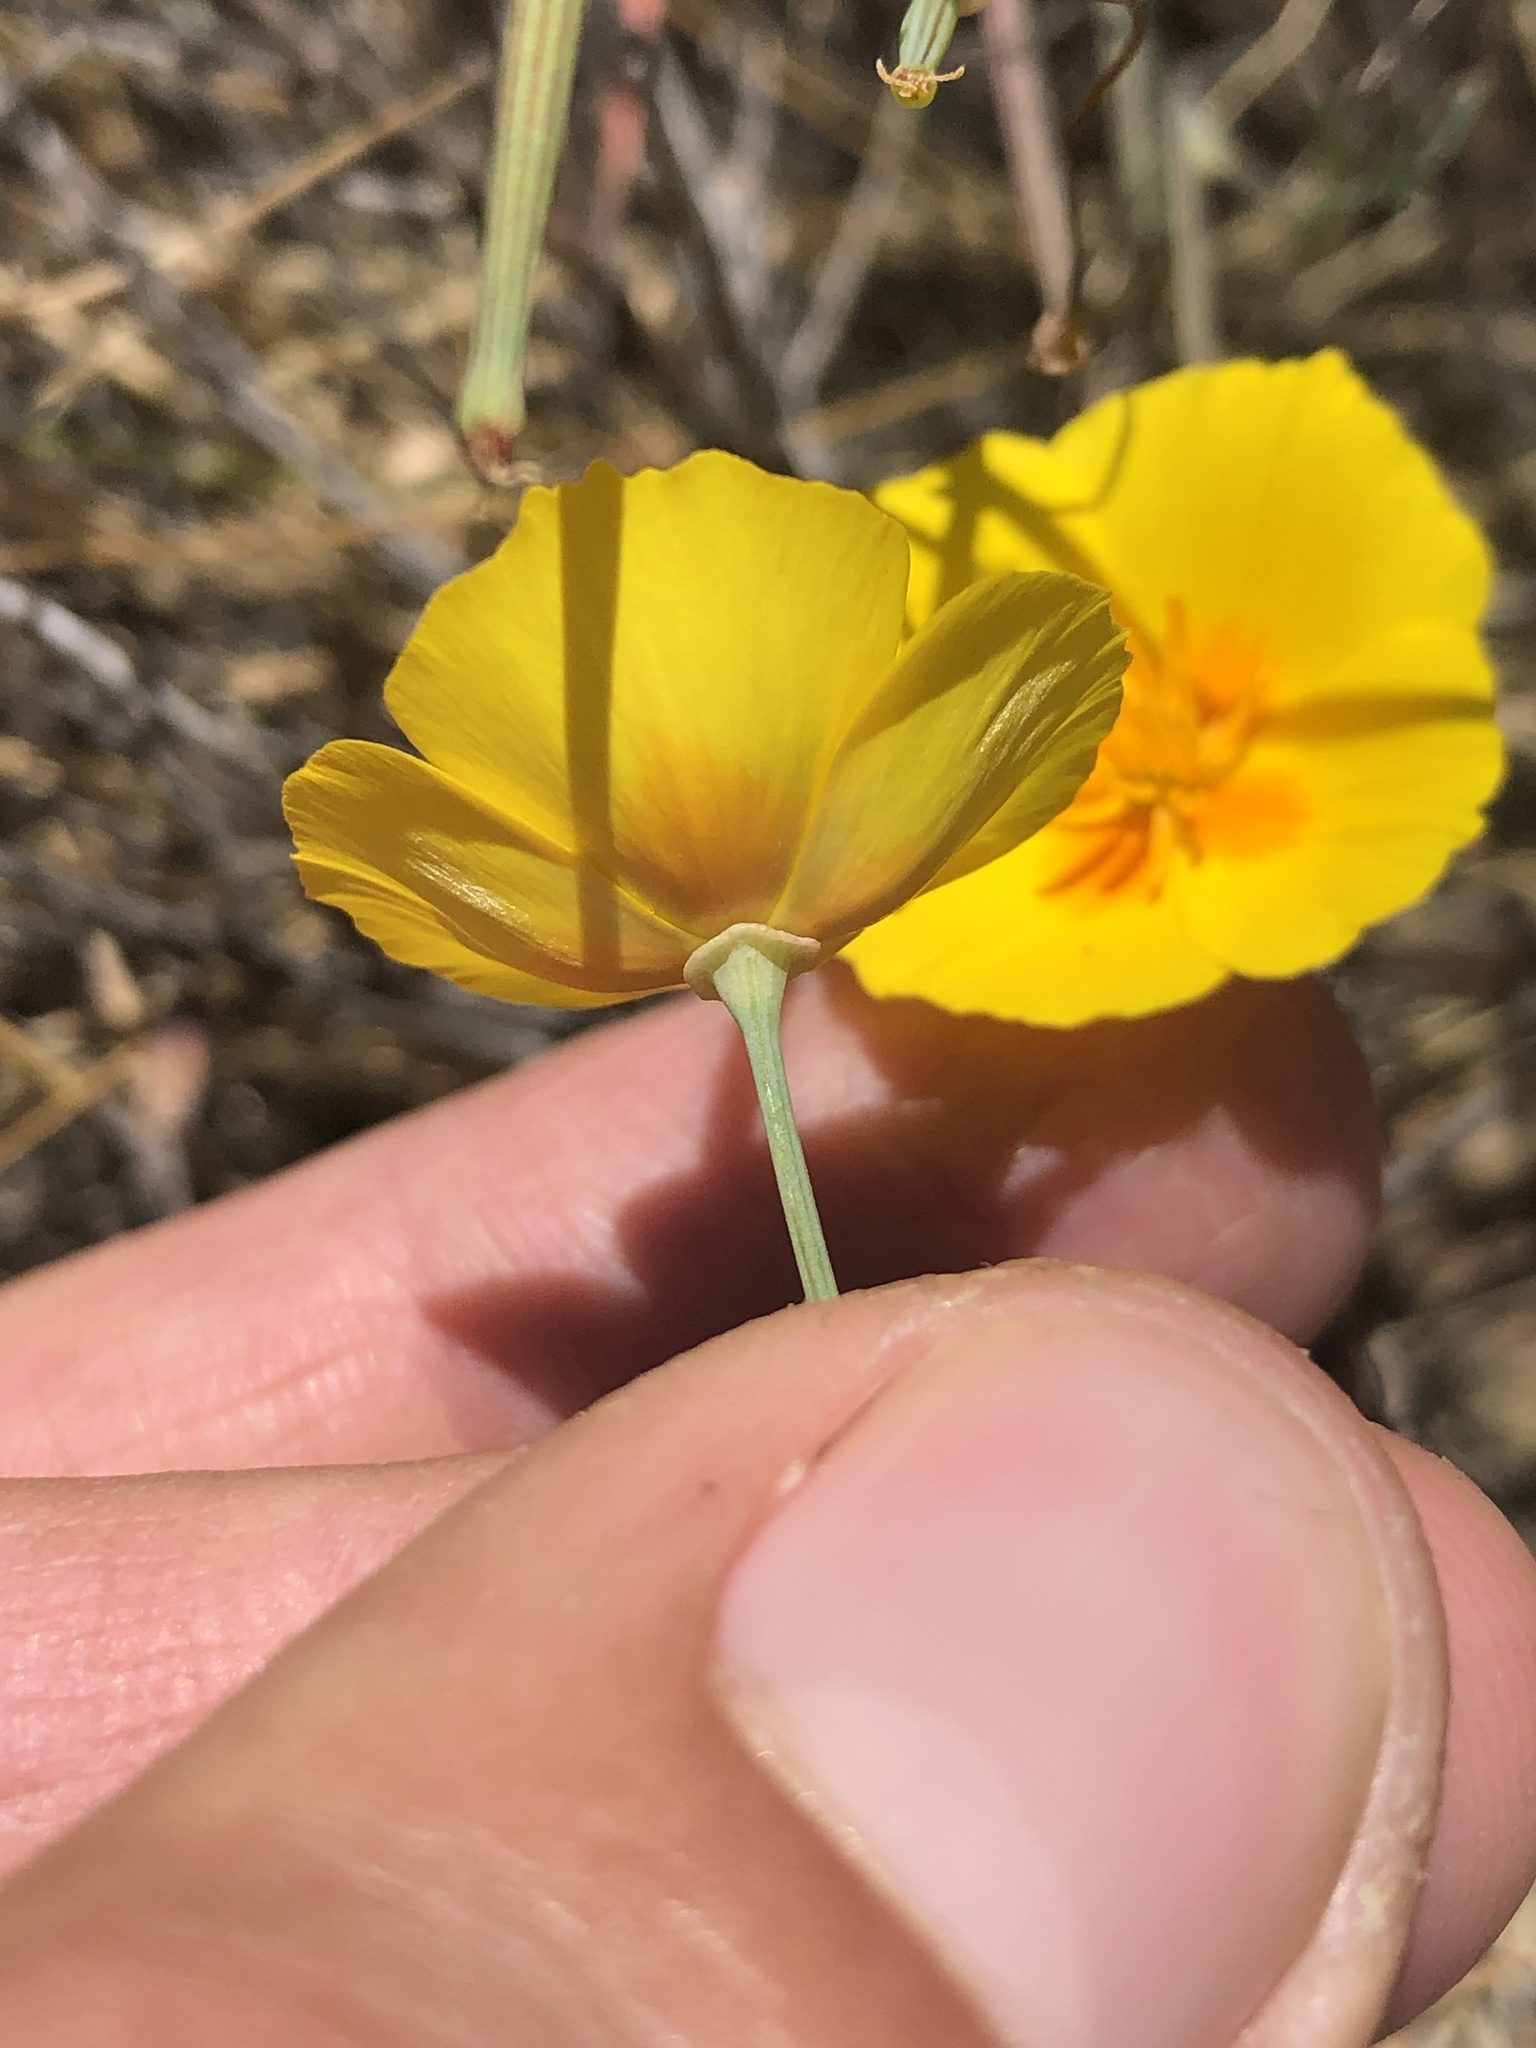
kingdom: Plantae
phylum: Tracheophyta
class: Magnoliopsida
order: Ranunculales
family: Papaveraceae
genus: Eschscholzia
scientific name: Eschscholzia californica
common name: California poppy
